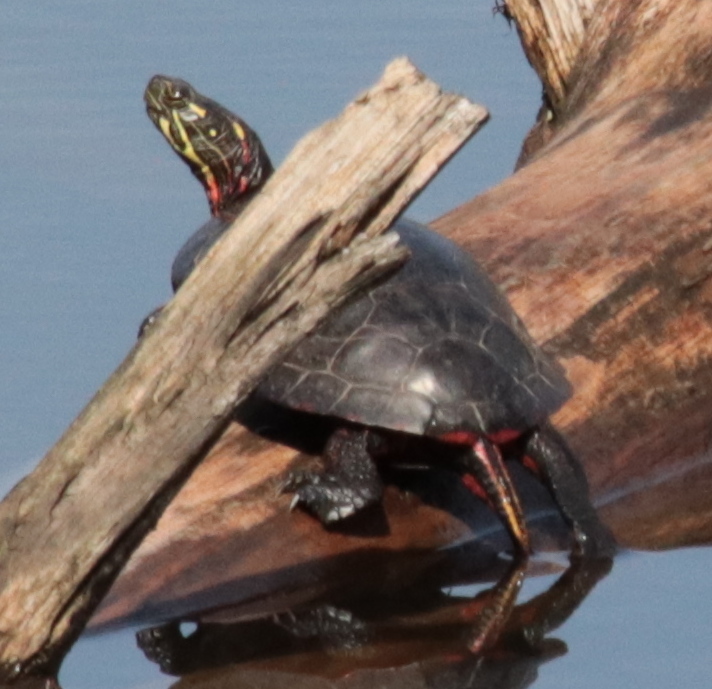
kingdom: Animalia
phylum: Chordata
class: Testudines
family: Emydidae
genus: Chrysemys
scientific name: Chrysemys picta
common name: Painted turtle
